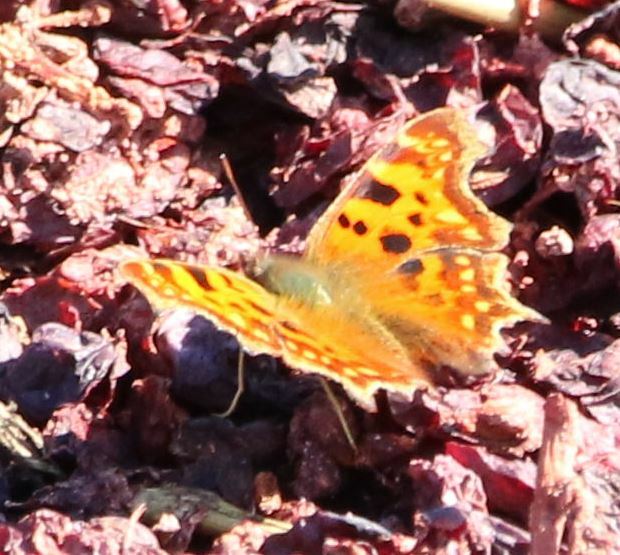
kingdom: Animalia
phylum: Arthropoda
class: Insecta
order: Lepidoptera
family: Nymphalidae
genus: Polygonia
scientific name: Polygonia c-album
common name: Comma
